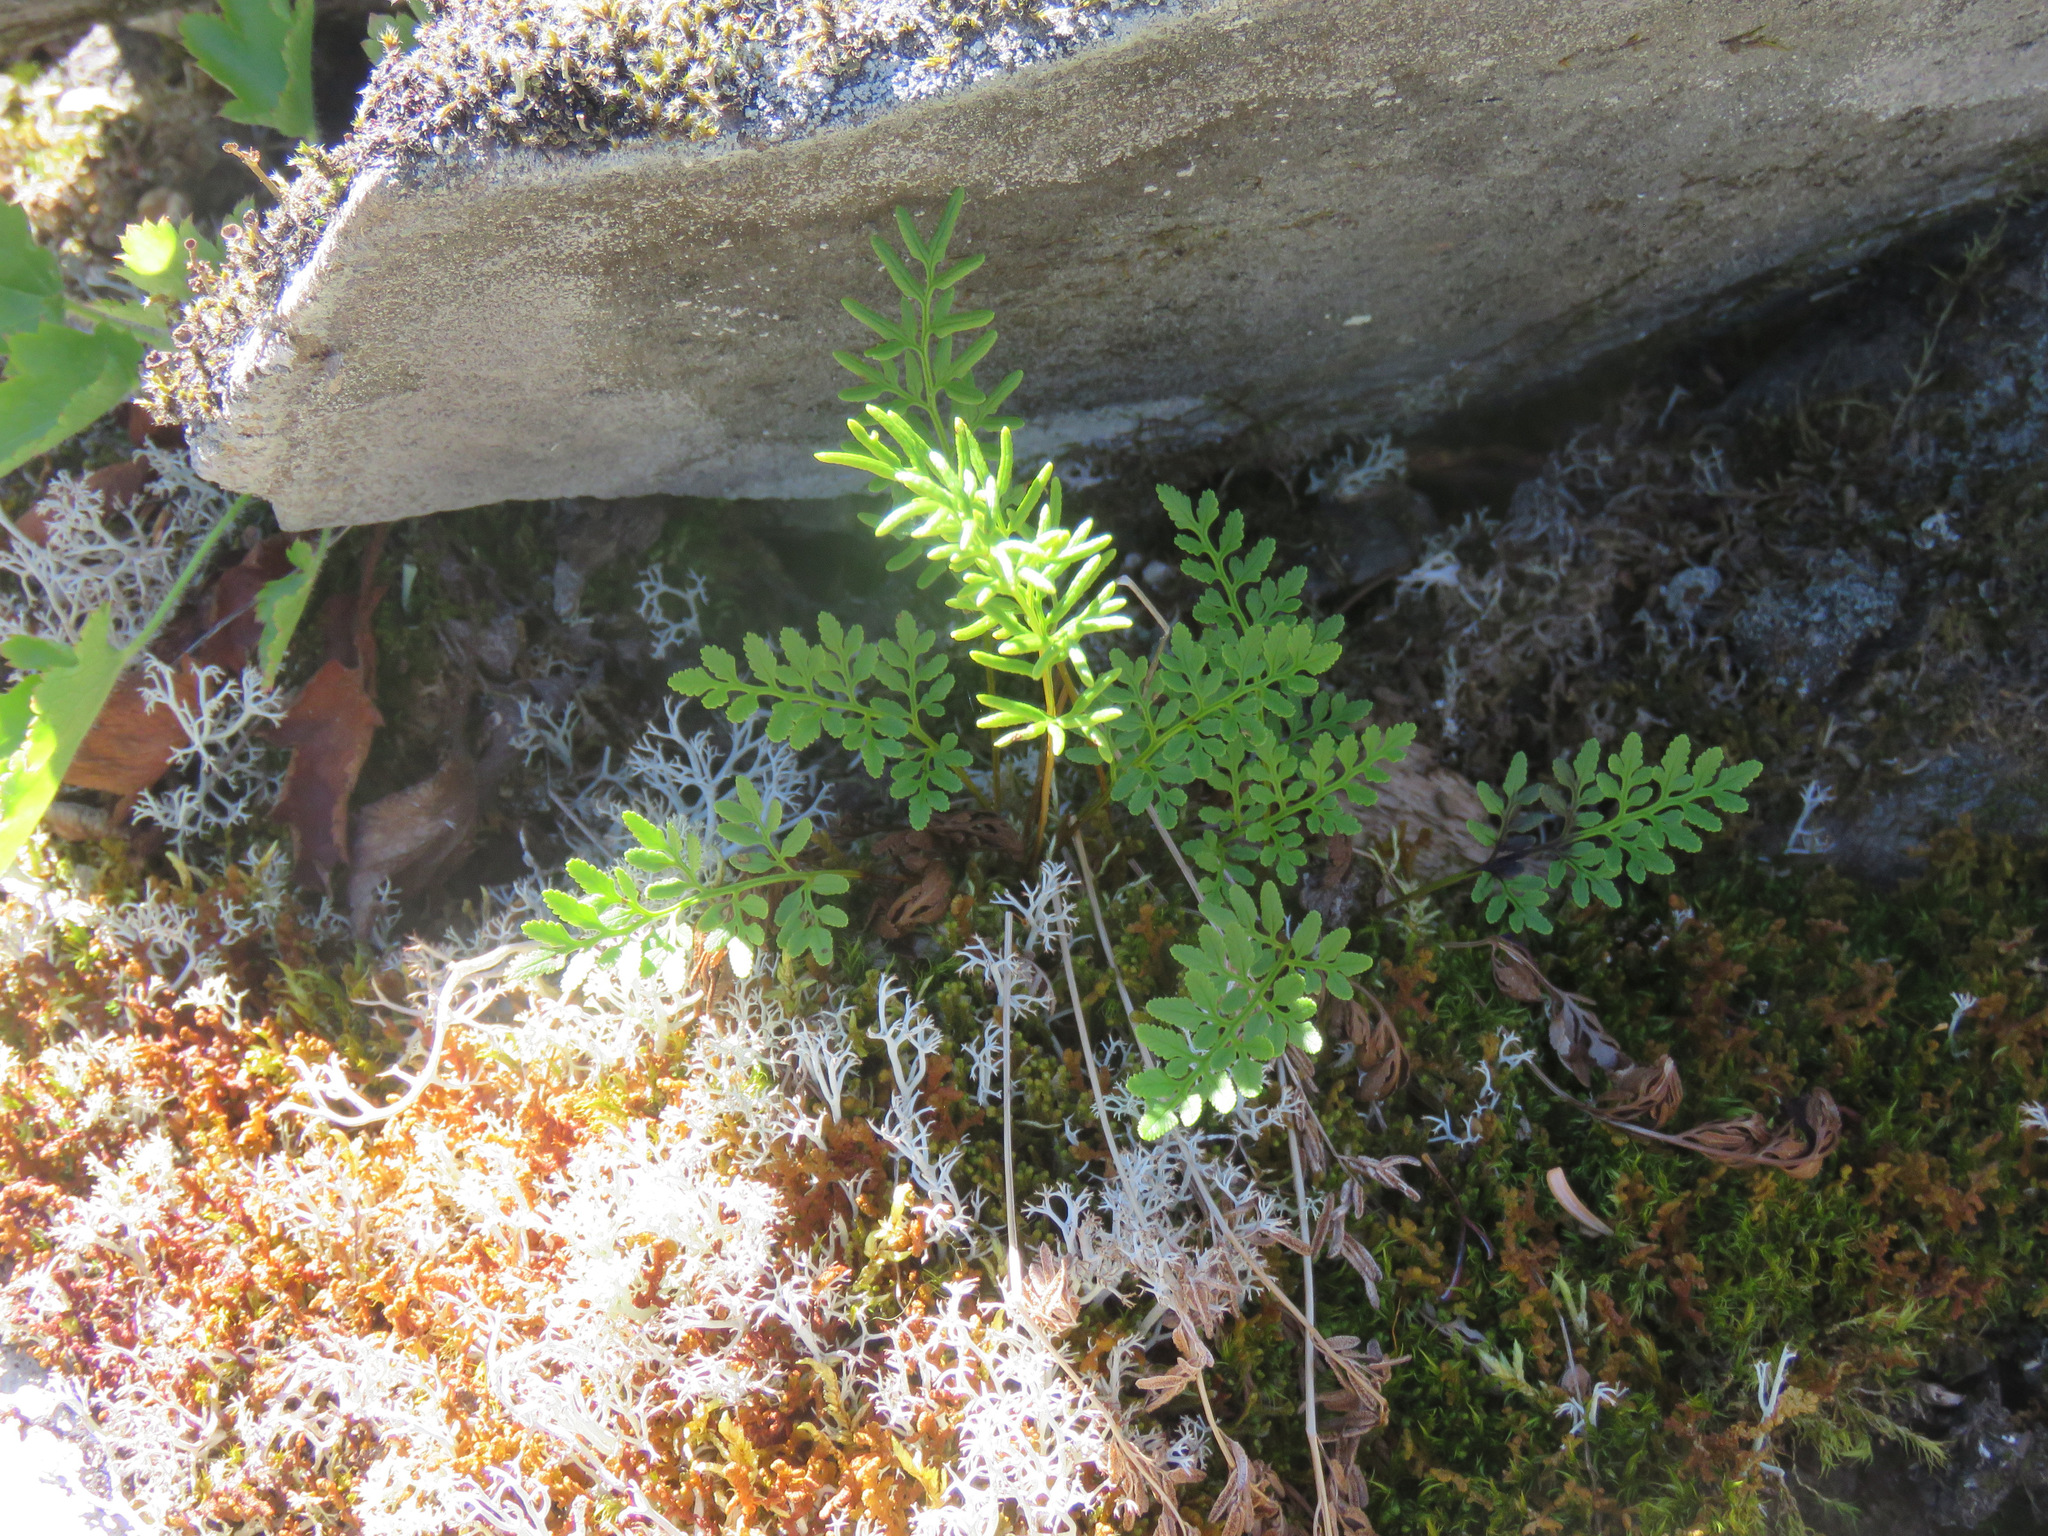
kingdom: Plantae
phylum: Tracheophyta
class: Polypodiopsida
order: Polypodiales
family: Pteridaceae
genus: Cryptogramma
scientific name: Cryptogramma acrostichoides
